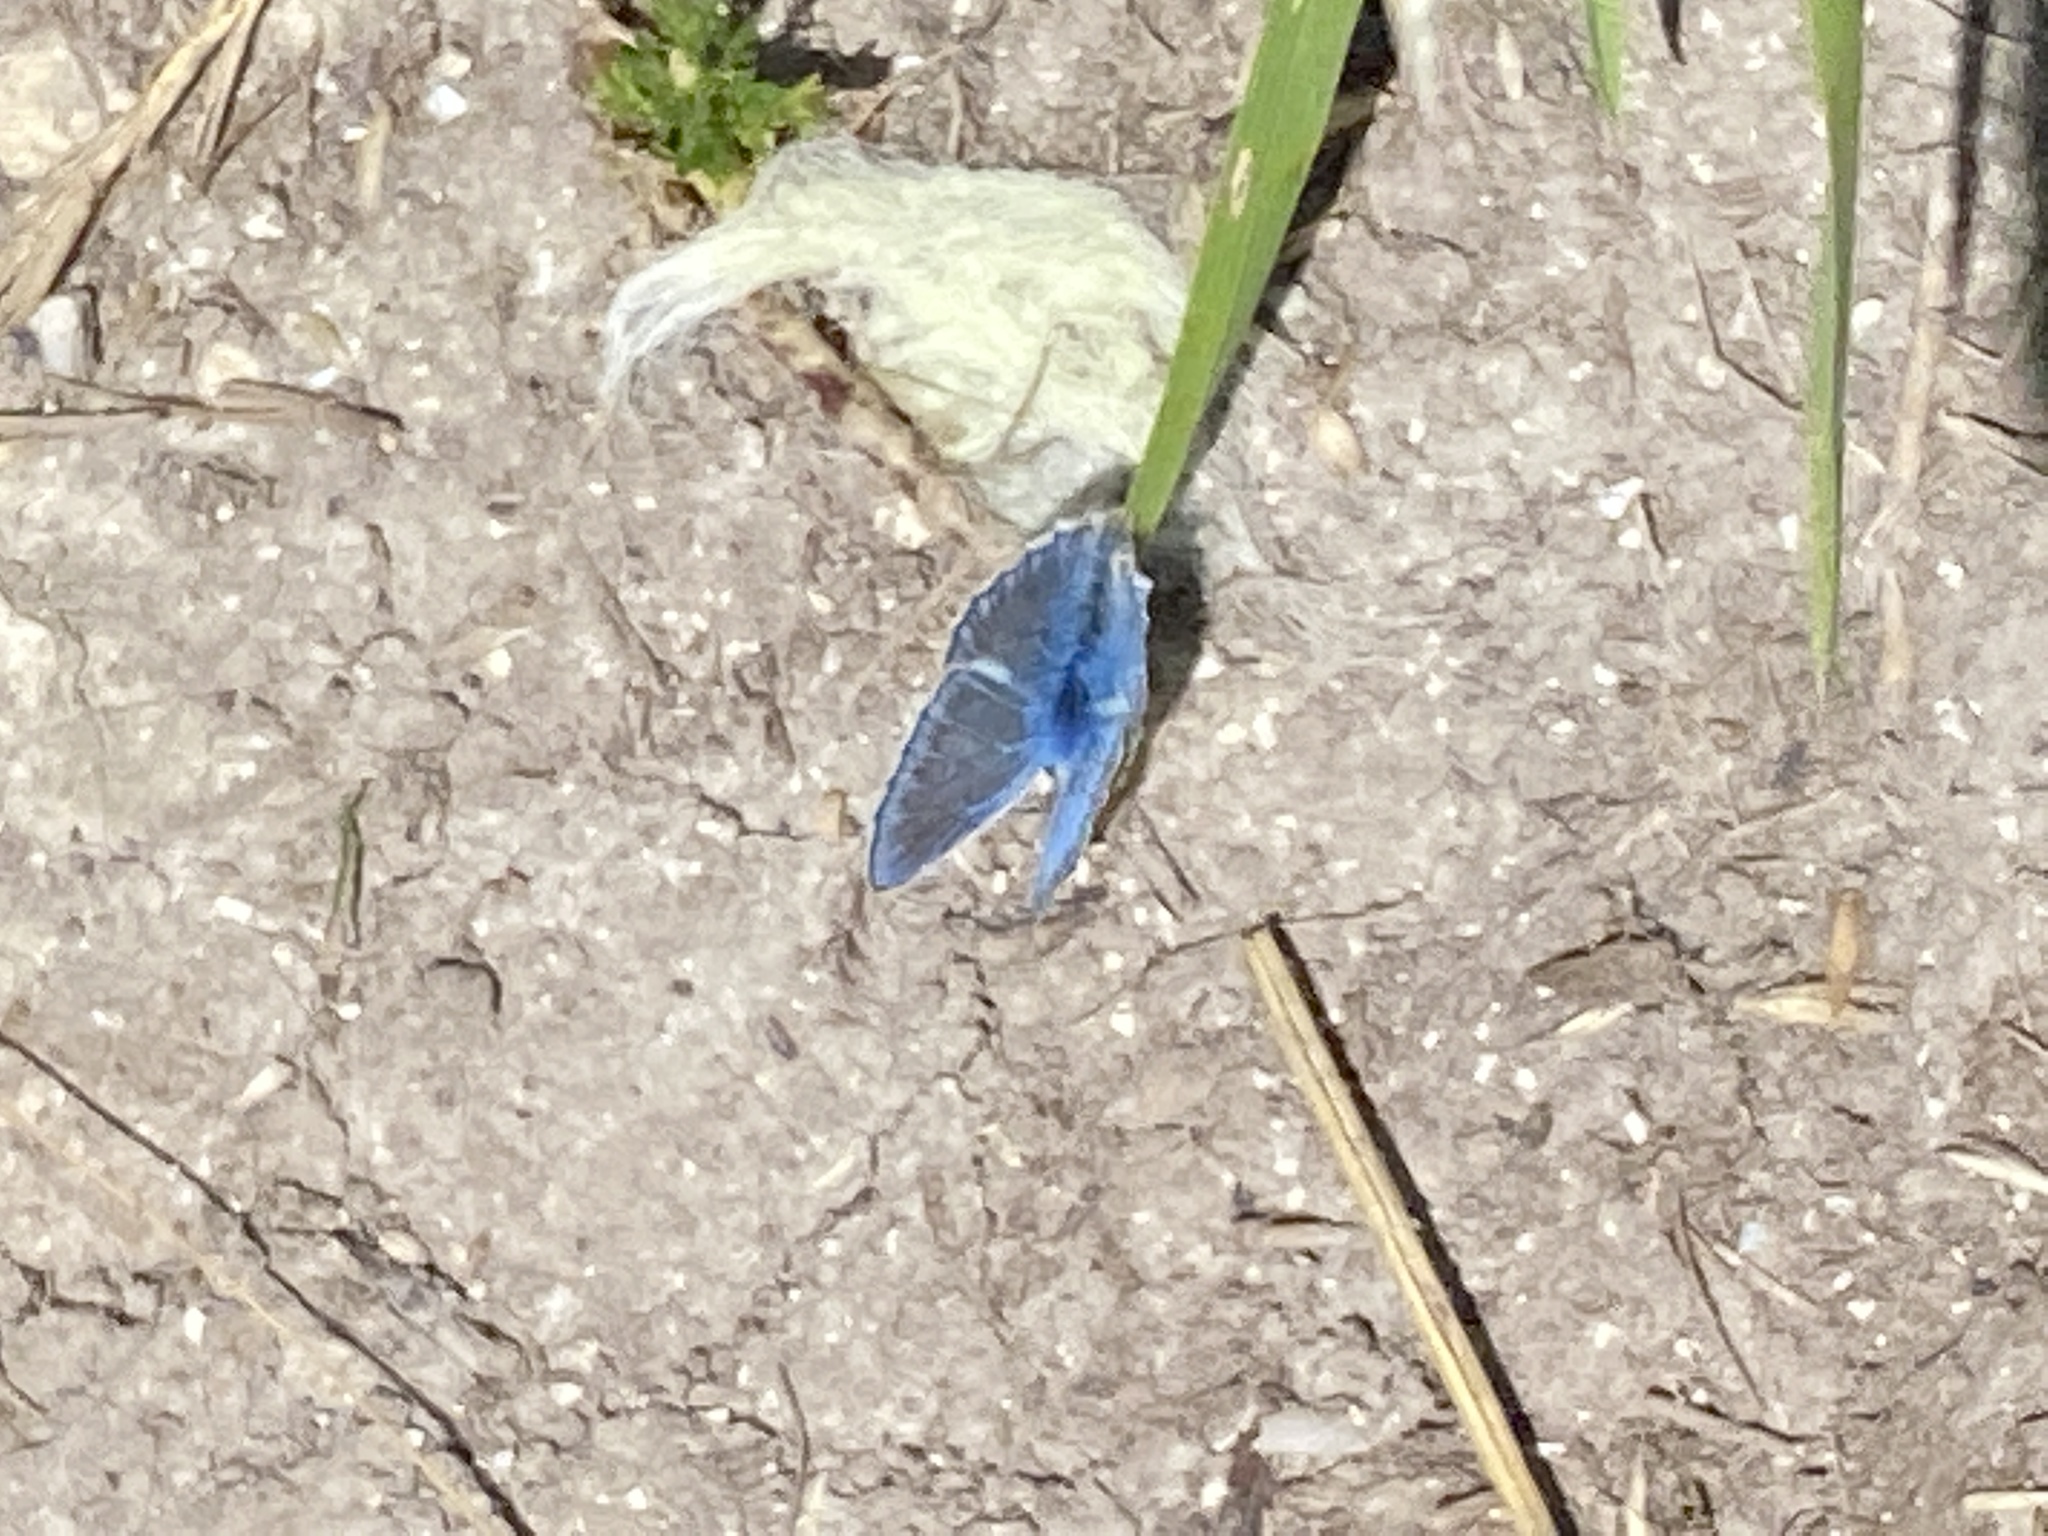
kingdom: Animalia
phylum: Arthropoda
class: Insecta
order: Lepidoptera
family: Lycaenidae
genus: Polyommatus
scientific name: Polyommatus icarus
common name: Common blue
